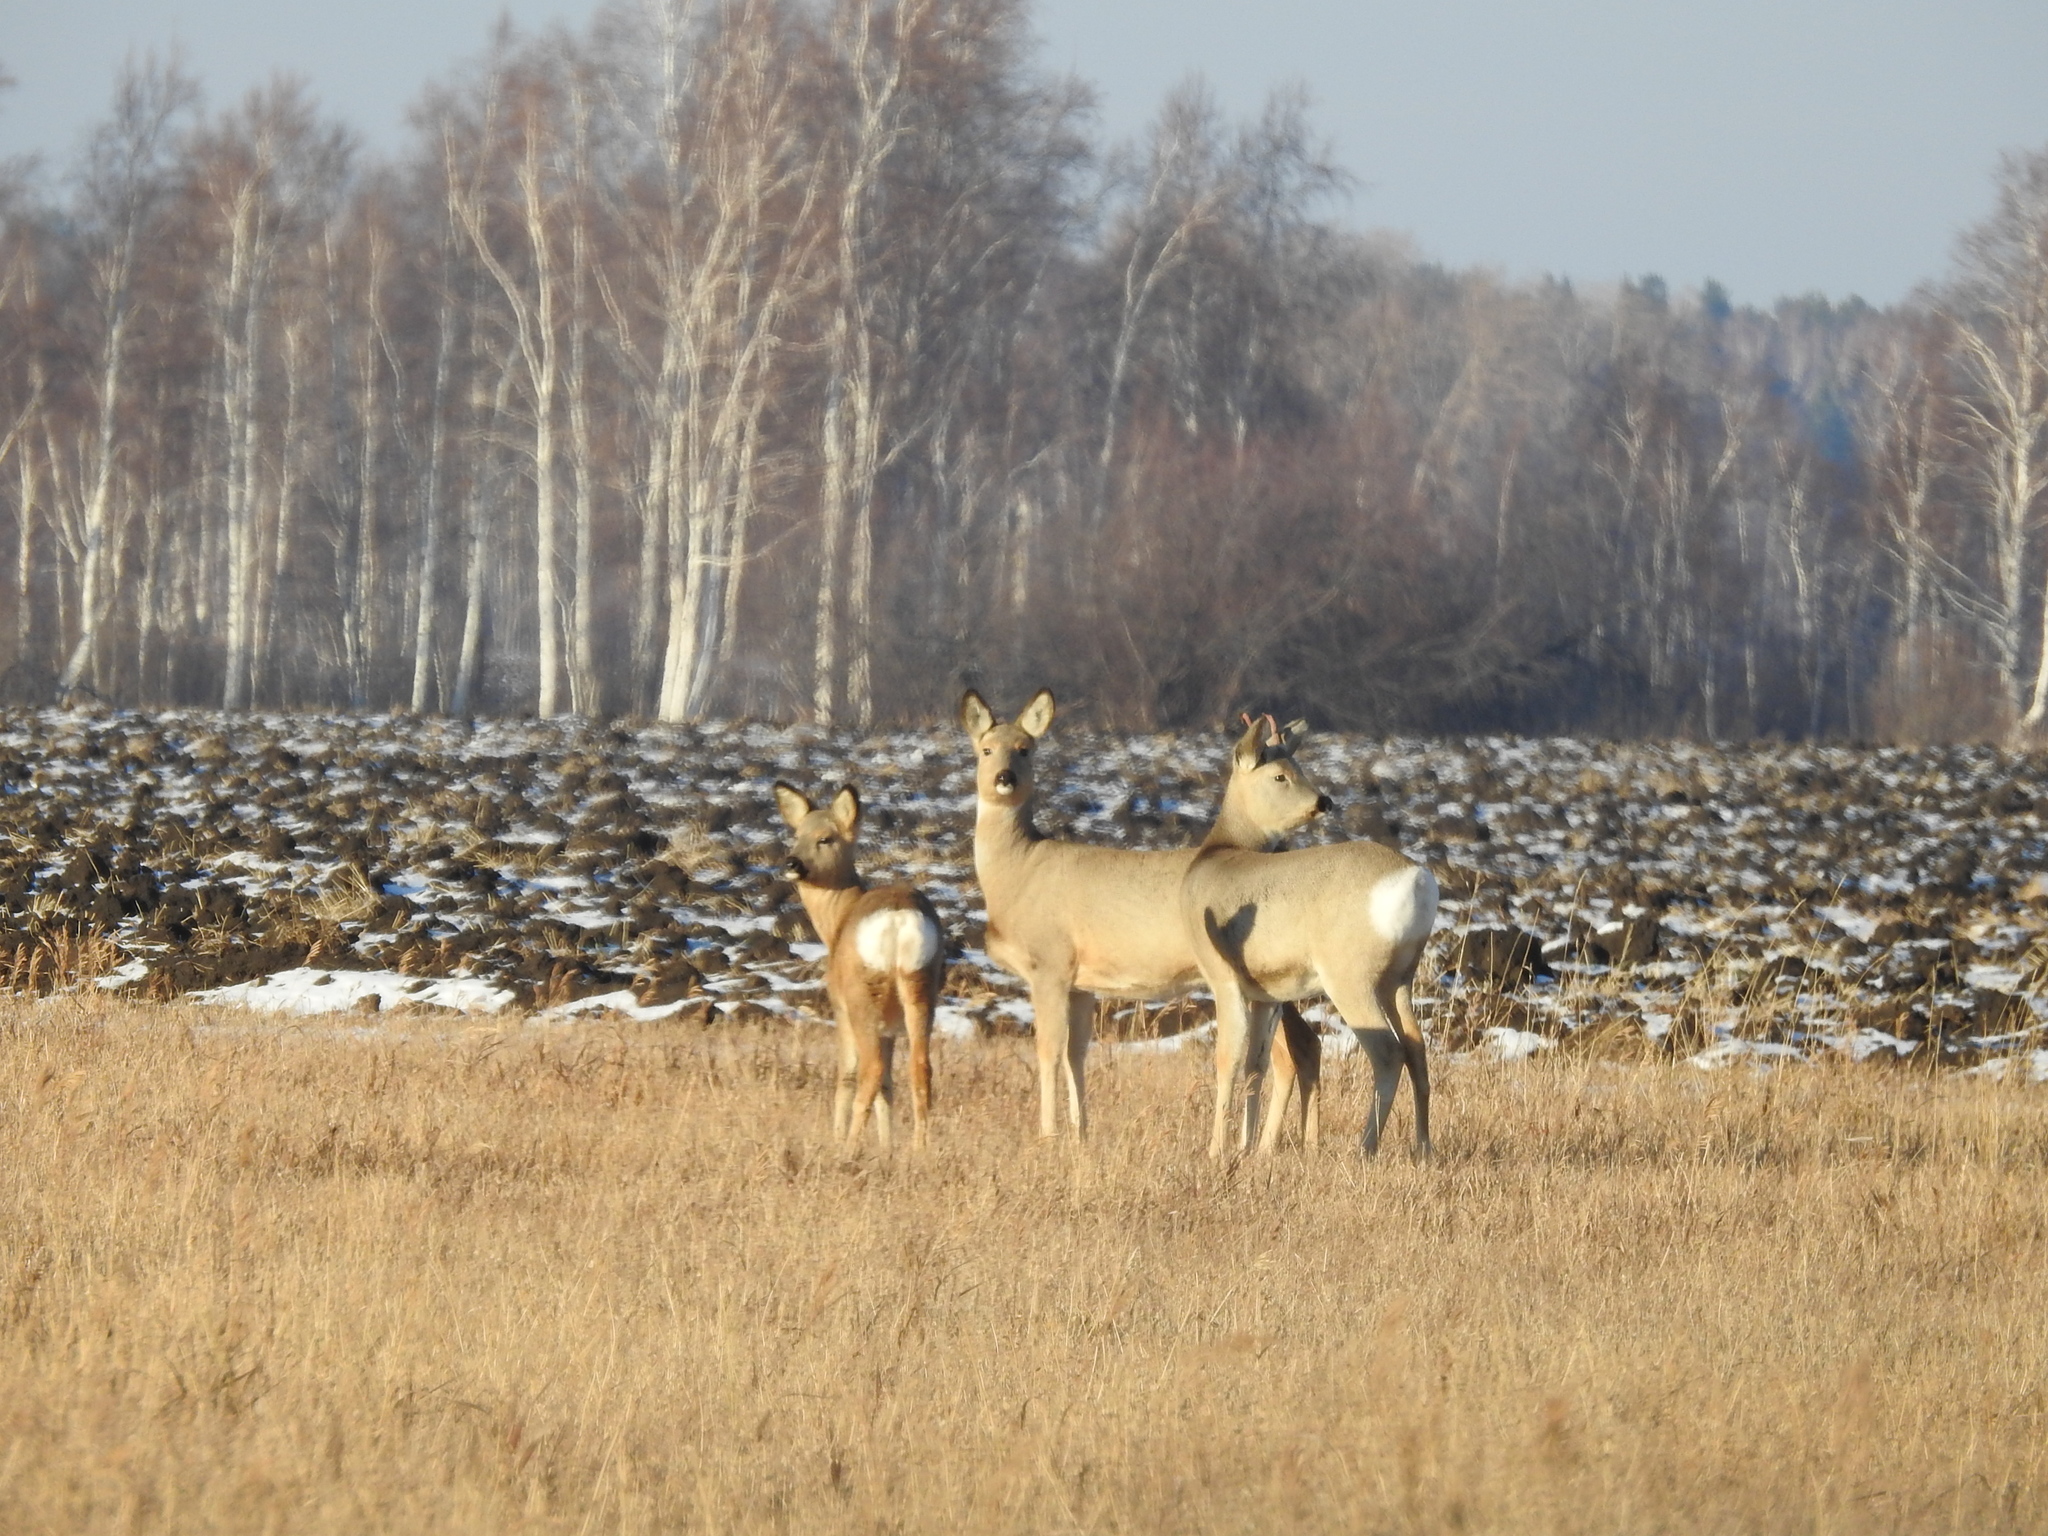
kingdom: Animalia
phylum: Chordata
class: Mammalia
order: Artiodactyla
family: Cervidae
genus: Capreolus
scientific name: Capreolus pygargus
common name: Siberian roe
